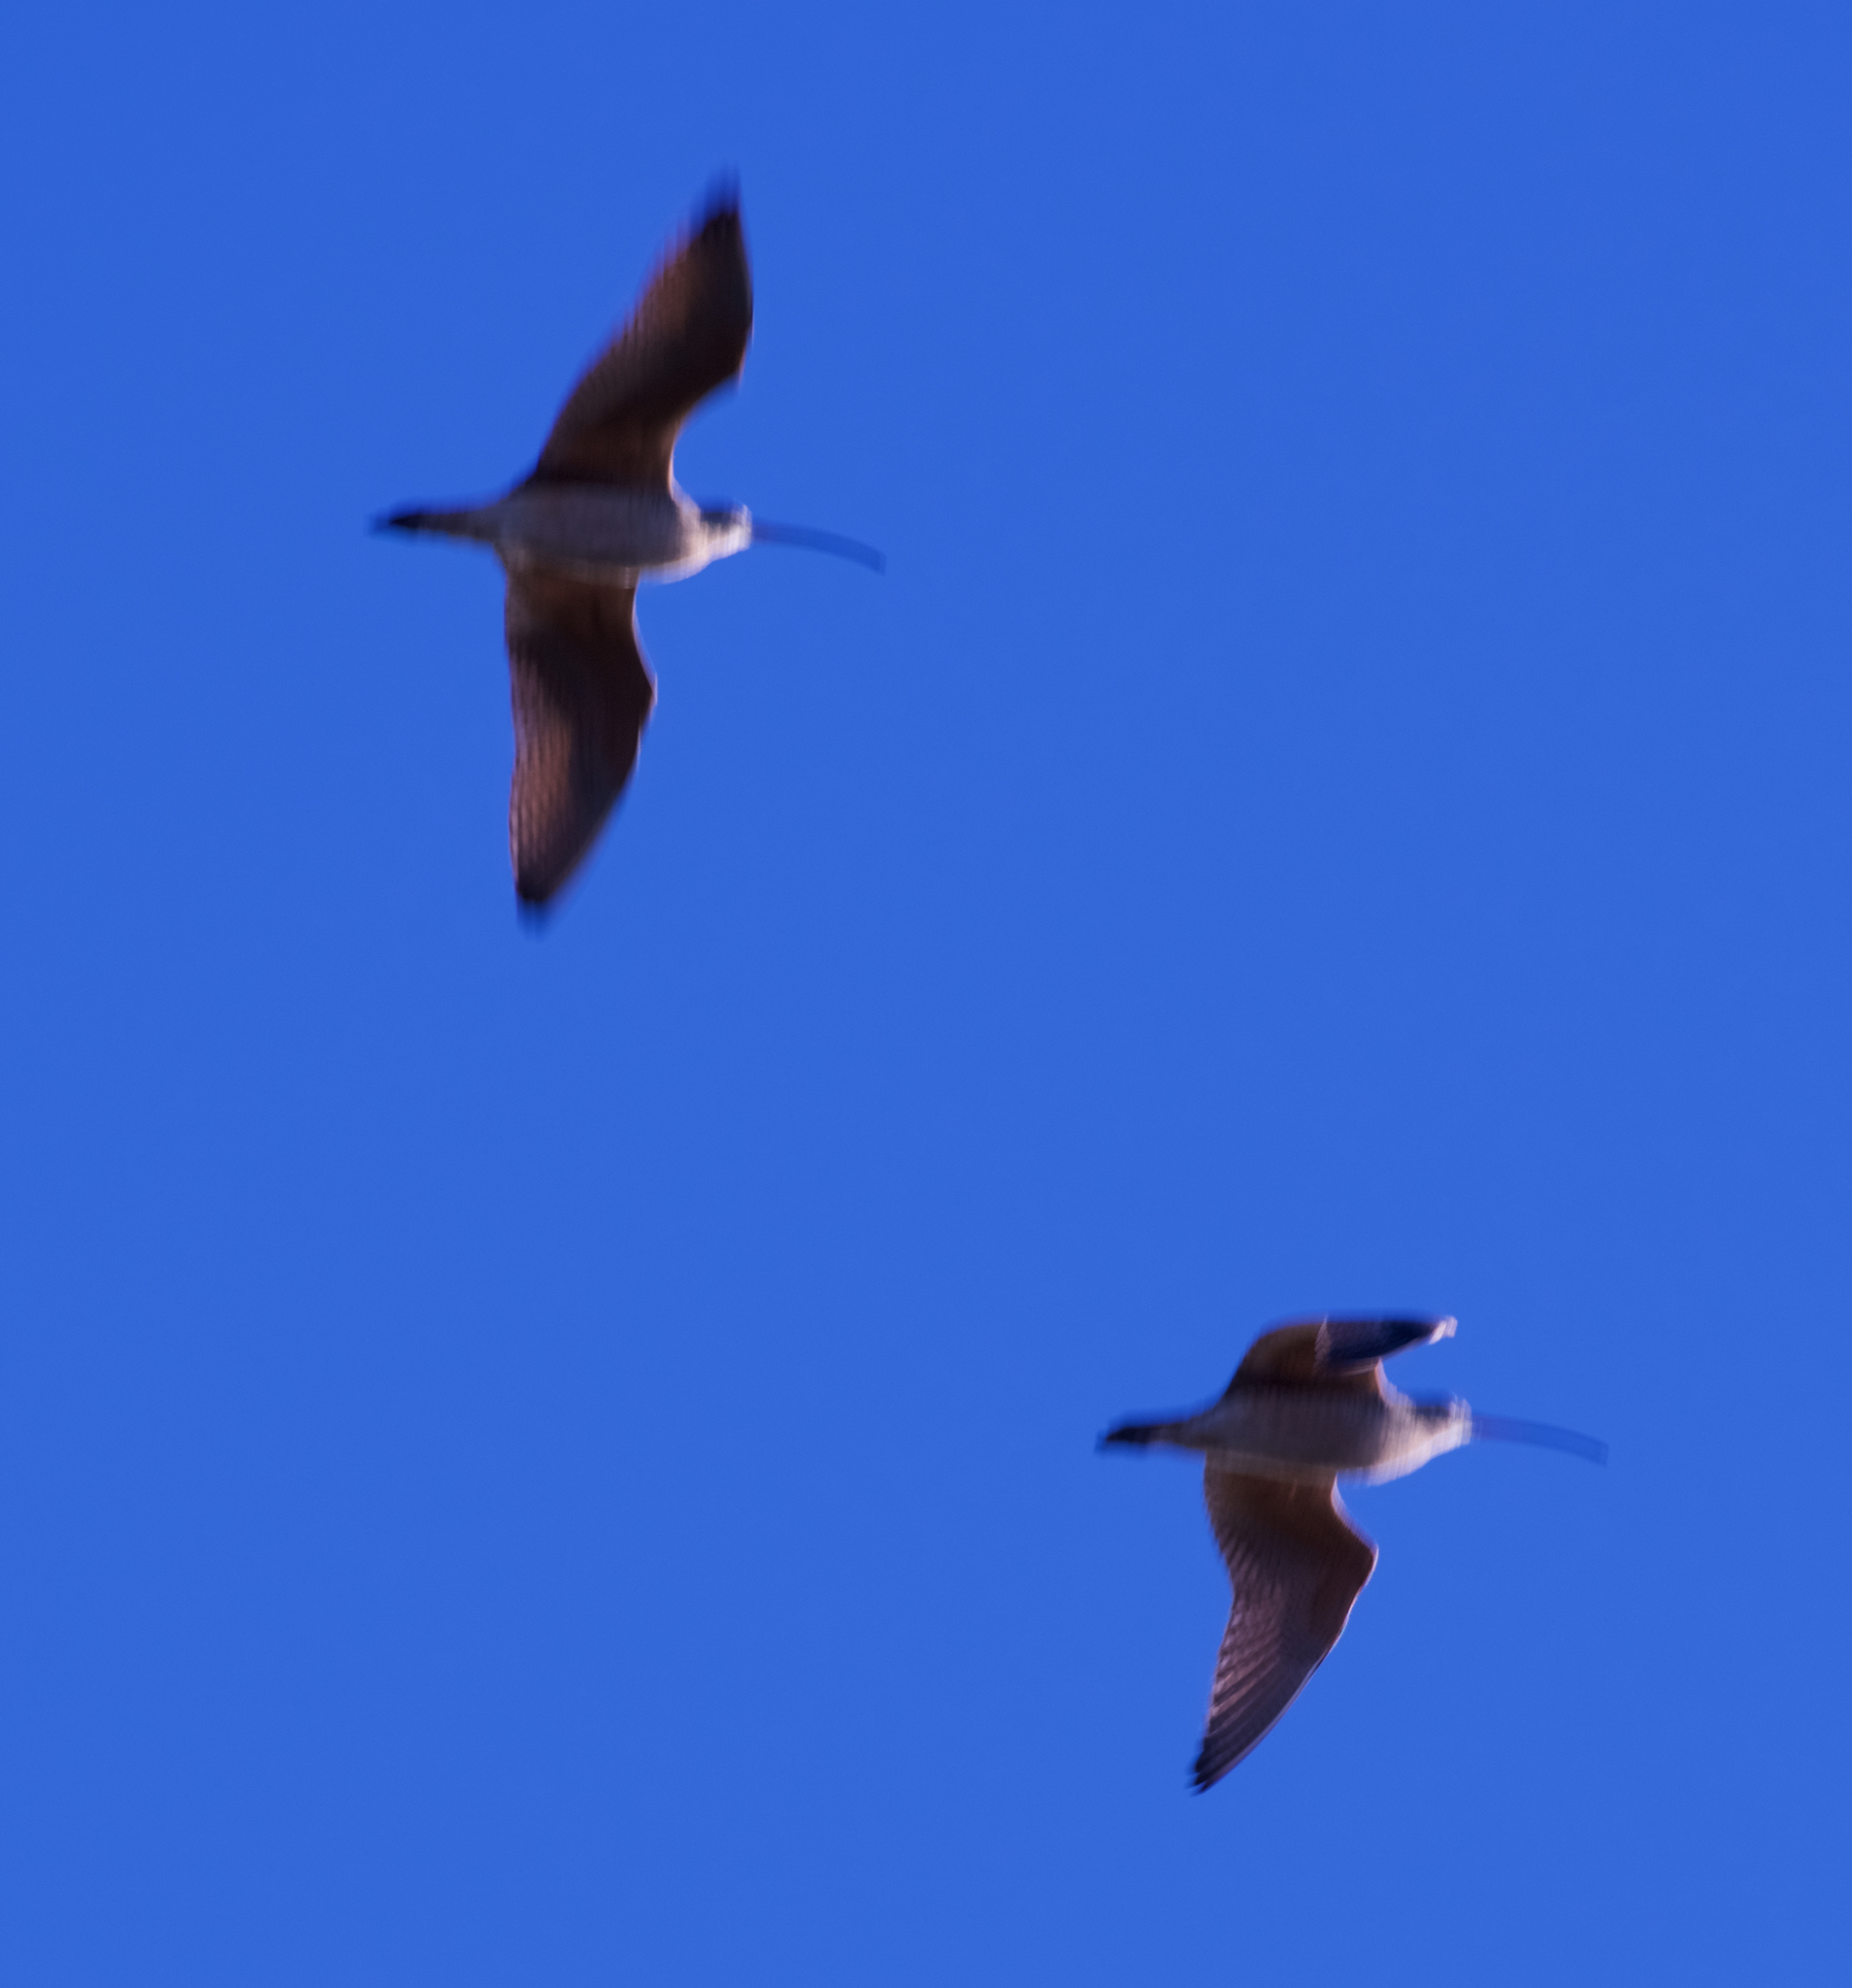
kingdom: Animalia
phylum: Chordata
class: Aves
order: Charadriiformes
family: Scolopacidae
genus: Numenius
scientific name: Numenius americanus
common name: Long-billed curlew
